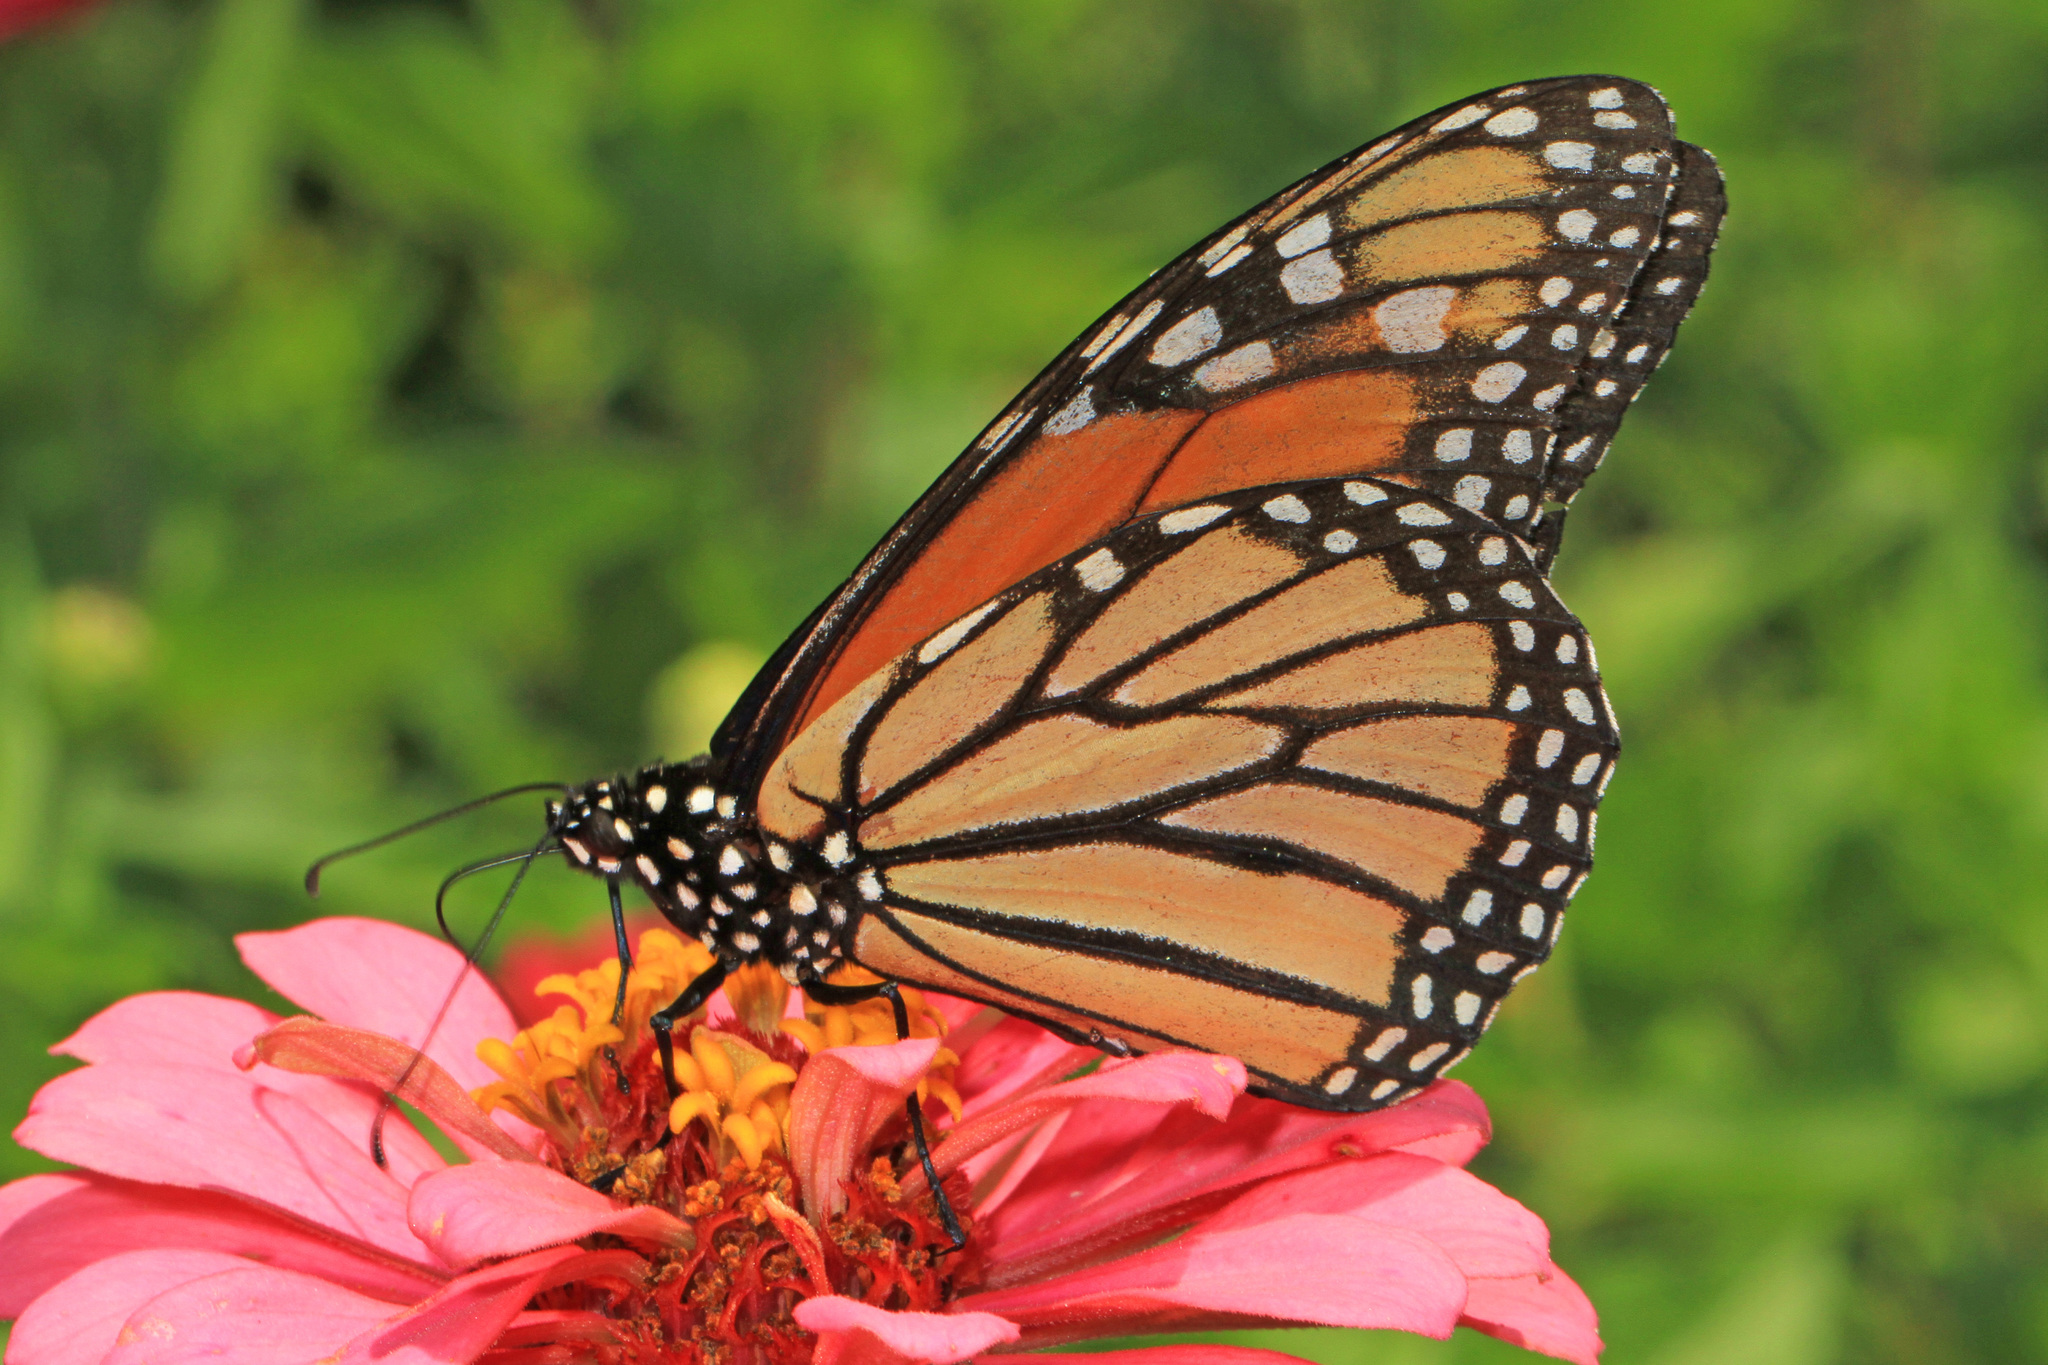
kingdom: Animalia
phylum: Arthropoda
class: Insecta
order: Lepidoptera
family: Nymphalidae
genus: Danaus
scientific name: Danaus plexippus
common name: Monarch
